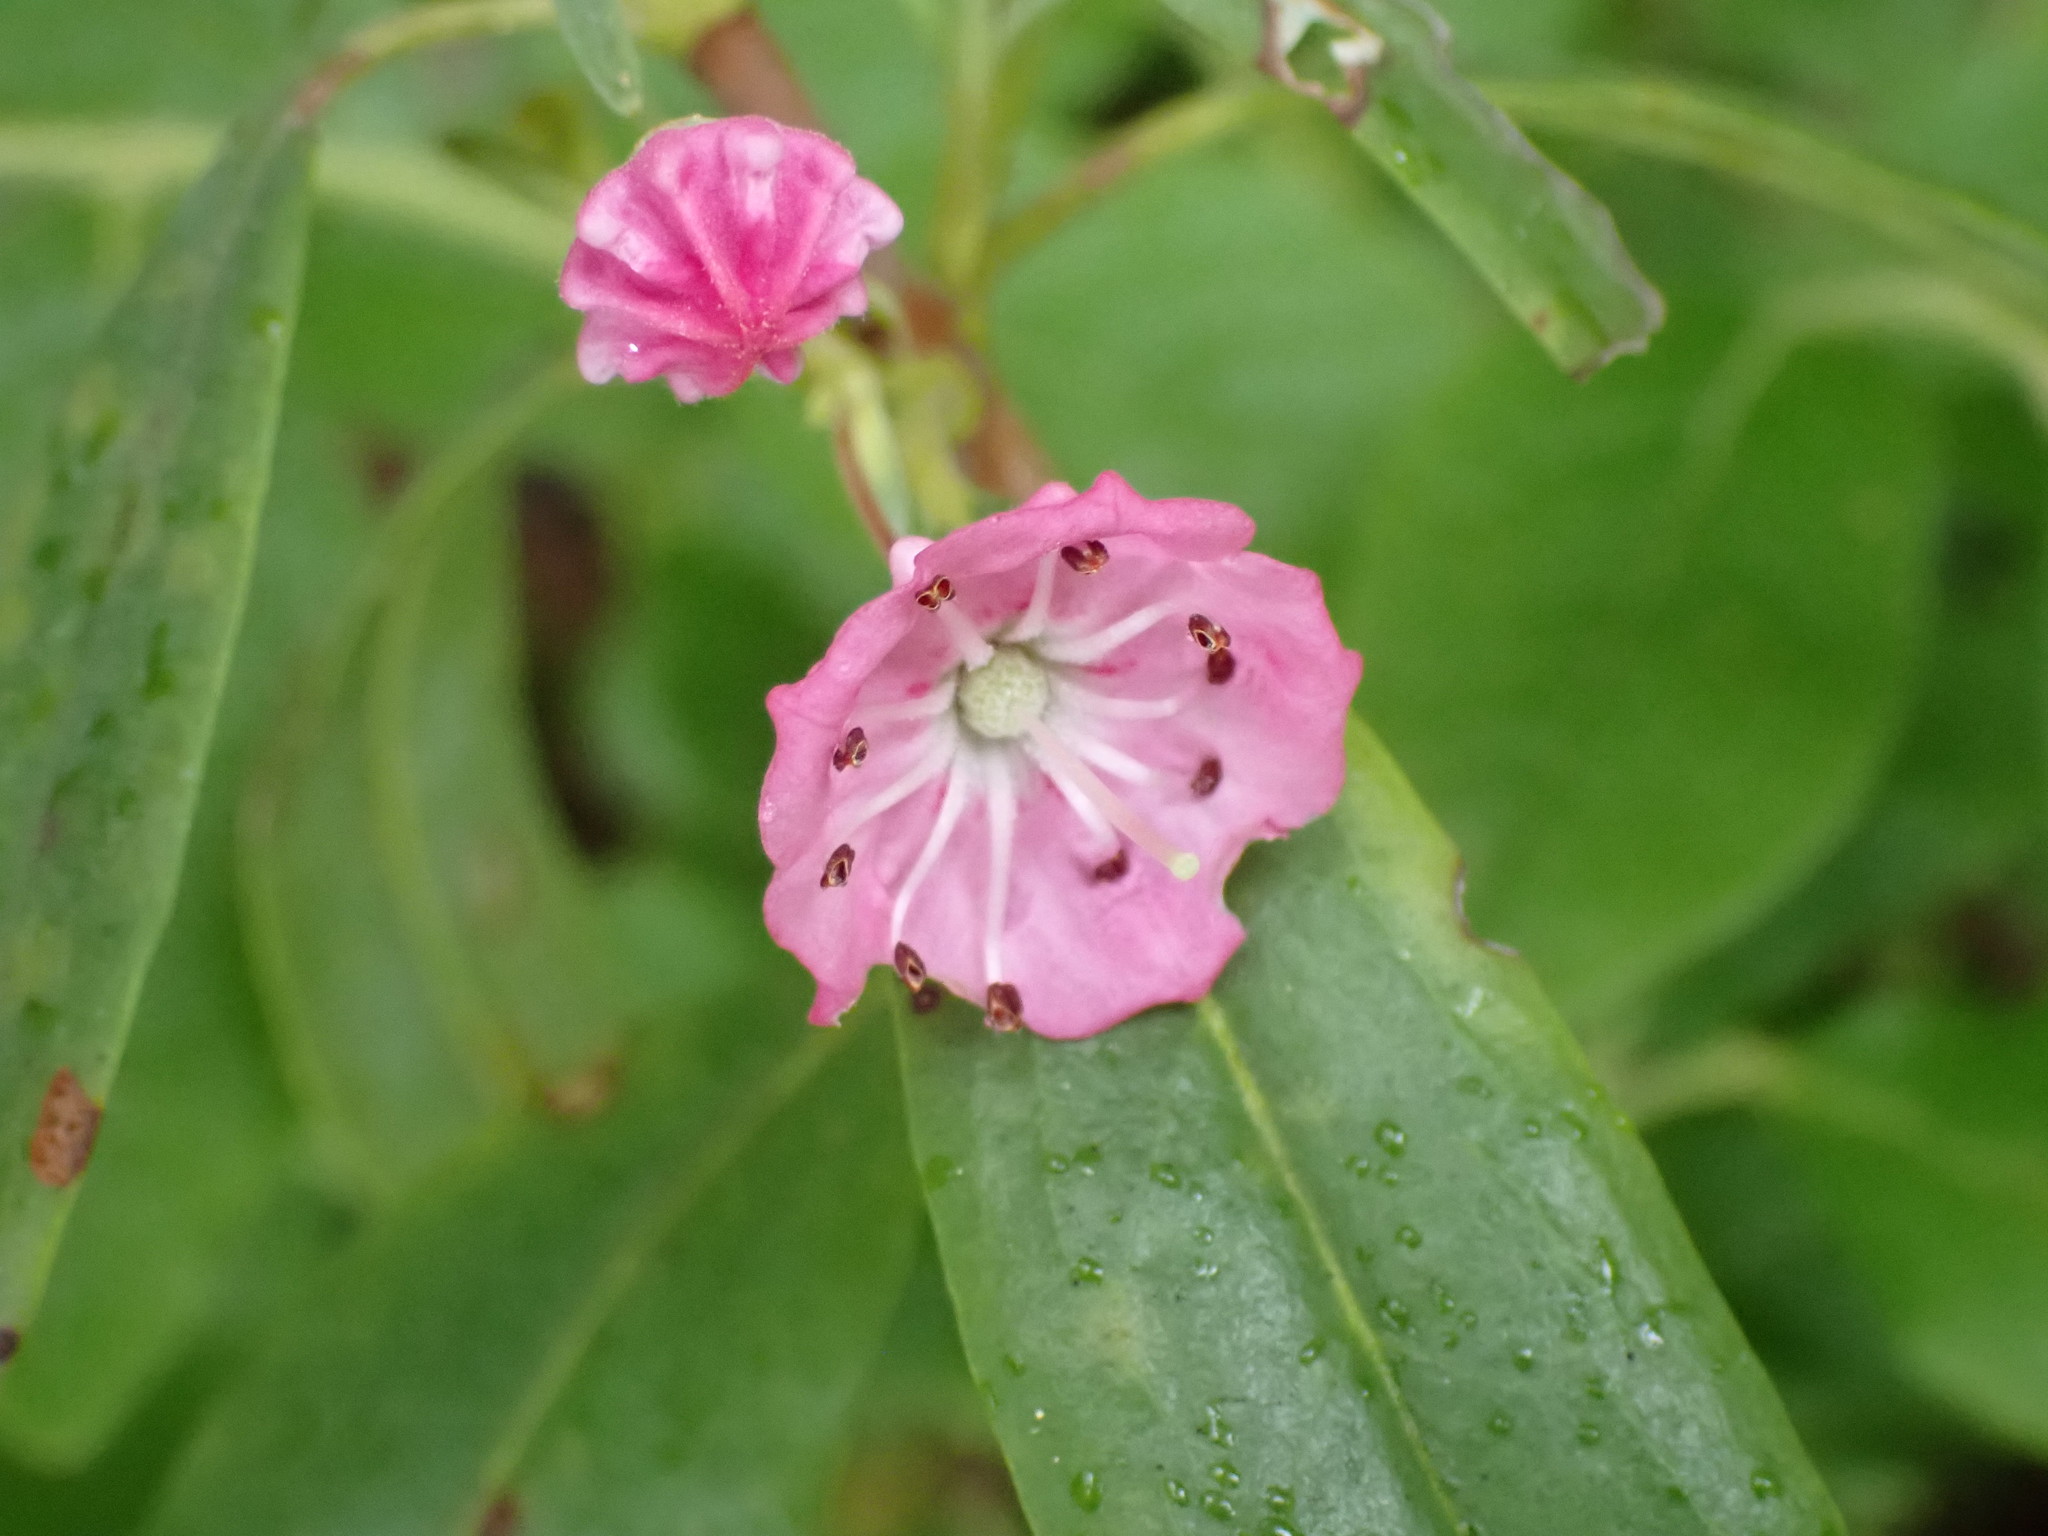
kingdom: Plantae
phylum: Tracheophyta
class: Magnoliopsida
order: Ericales
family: Ericaceae
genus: Kalmia
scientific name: Kalmia angustifolia
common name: Sheep-laurel
